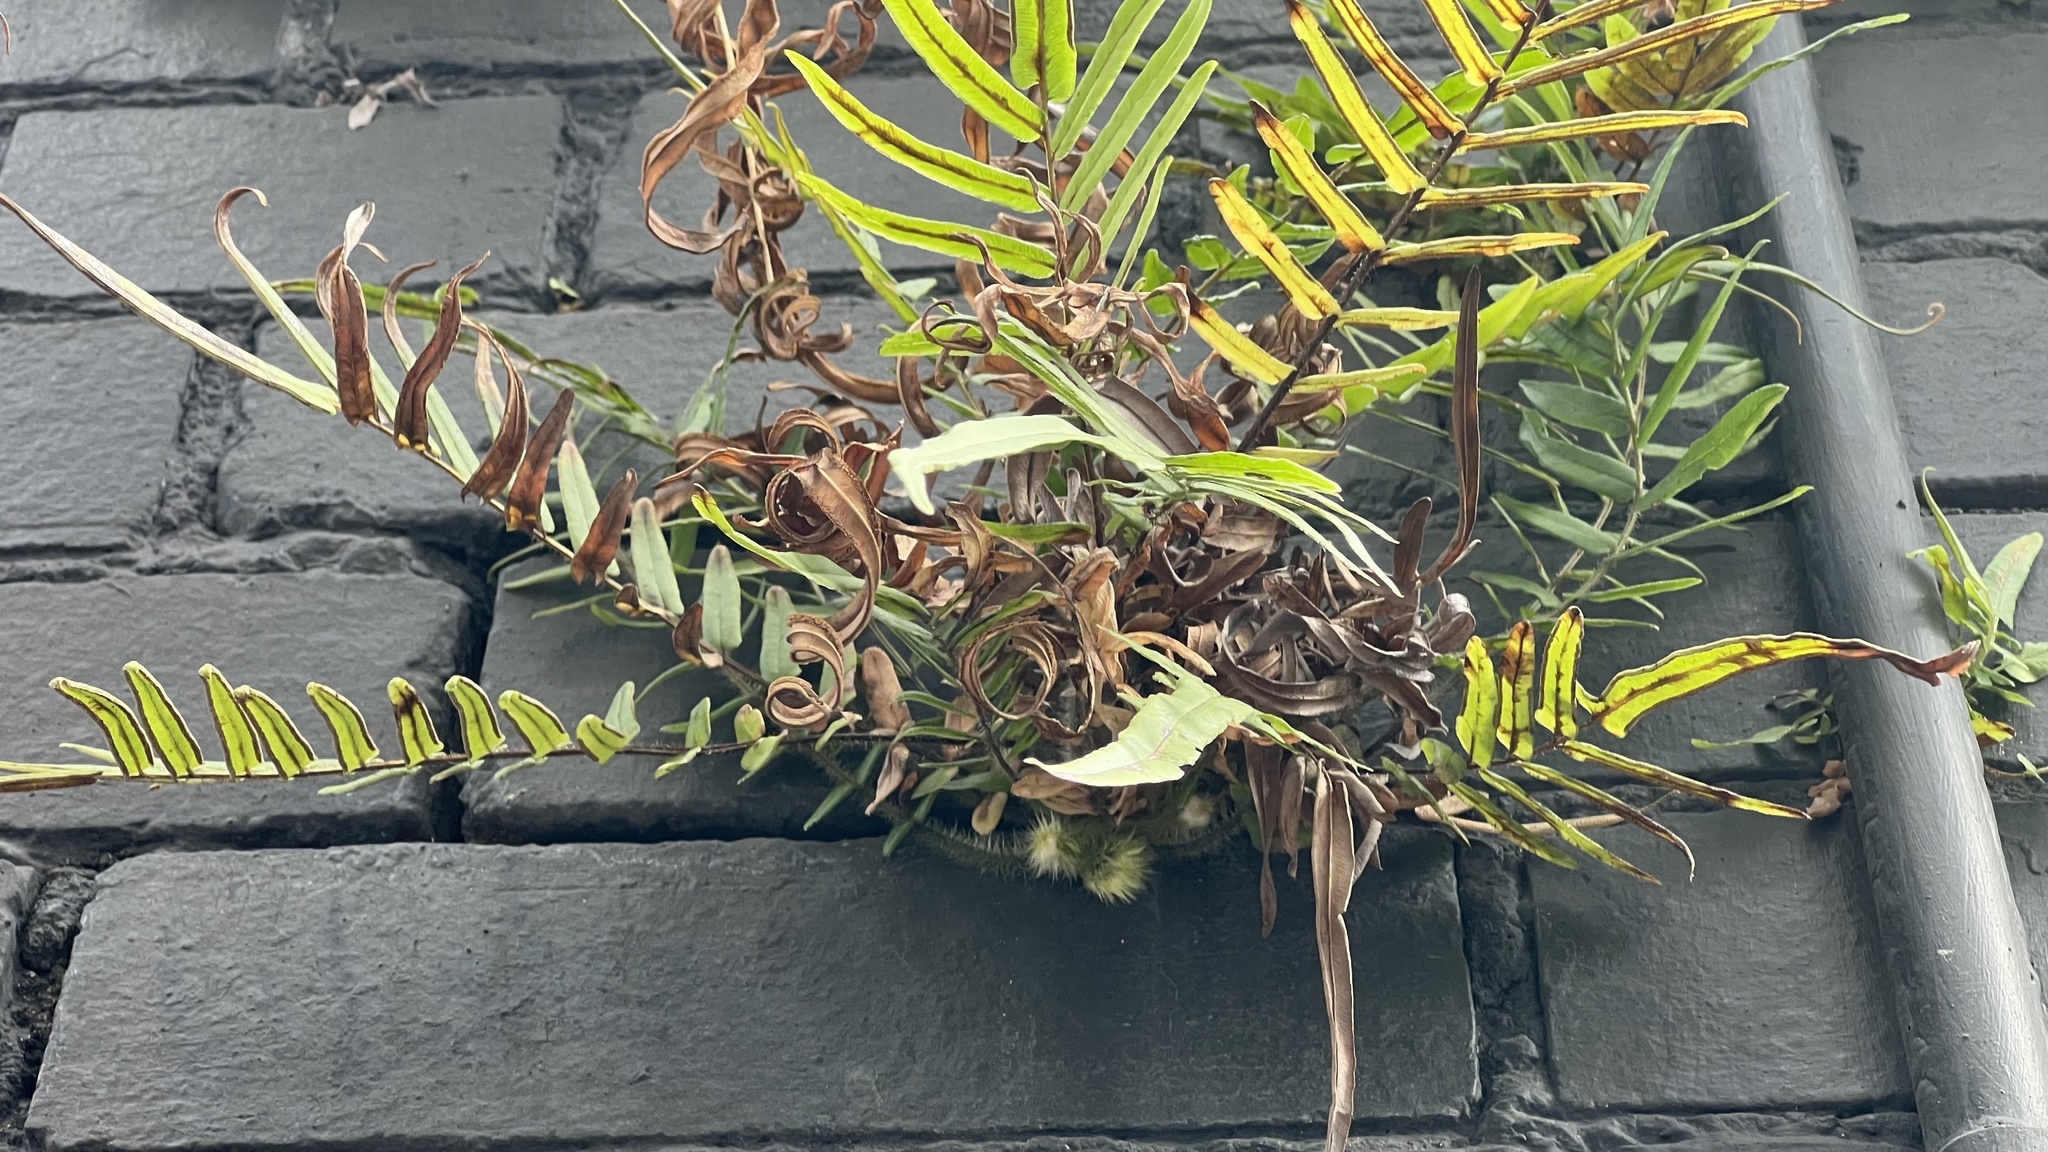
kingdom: Plantae
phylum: Tracheophyta
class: Polypodiopsida
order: Polypodiales
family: Pteridaceae
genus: Pteris
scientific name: Pteris vittata
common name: Ladder brake
